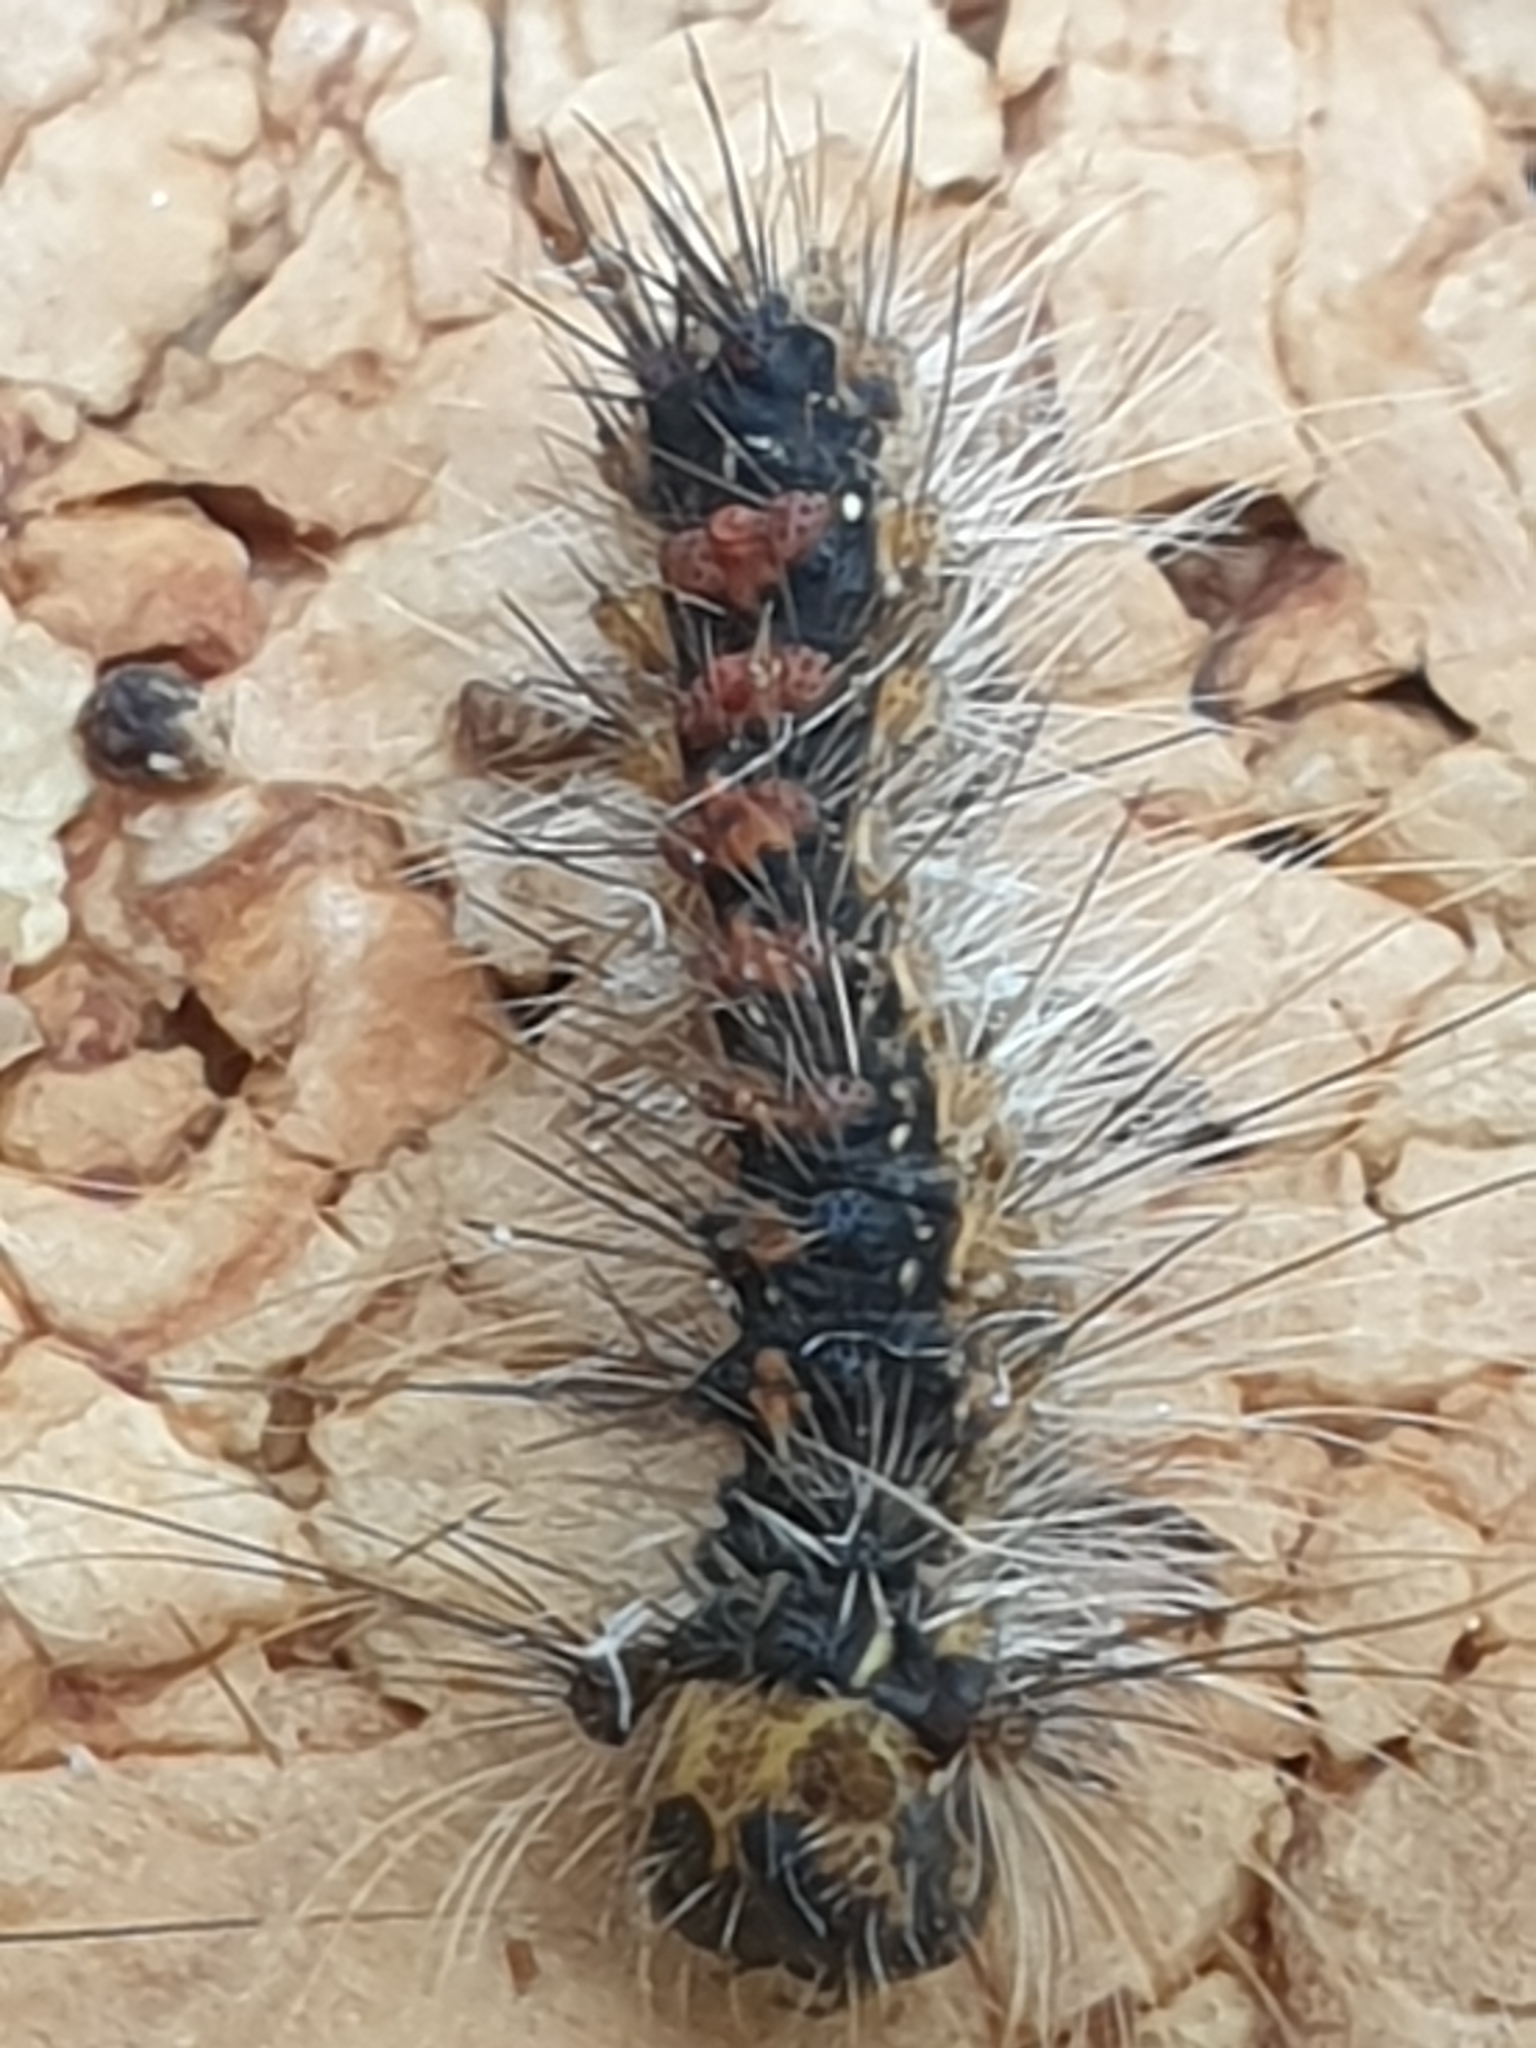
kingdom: Animalia
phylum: Arthropoda
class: Insecta
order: Lepidoptera
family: Erebidae
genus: Lymantria
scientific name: Lymantria dispar
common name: Gypsy moth
